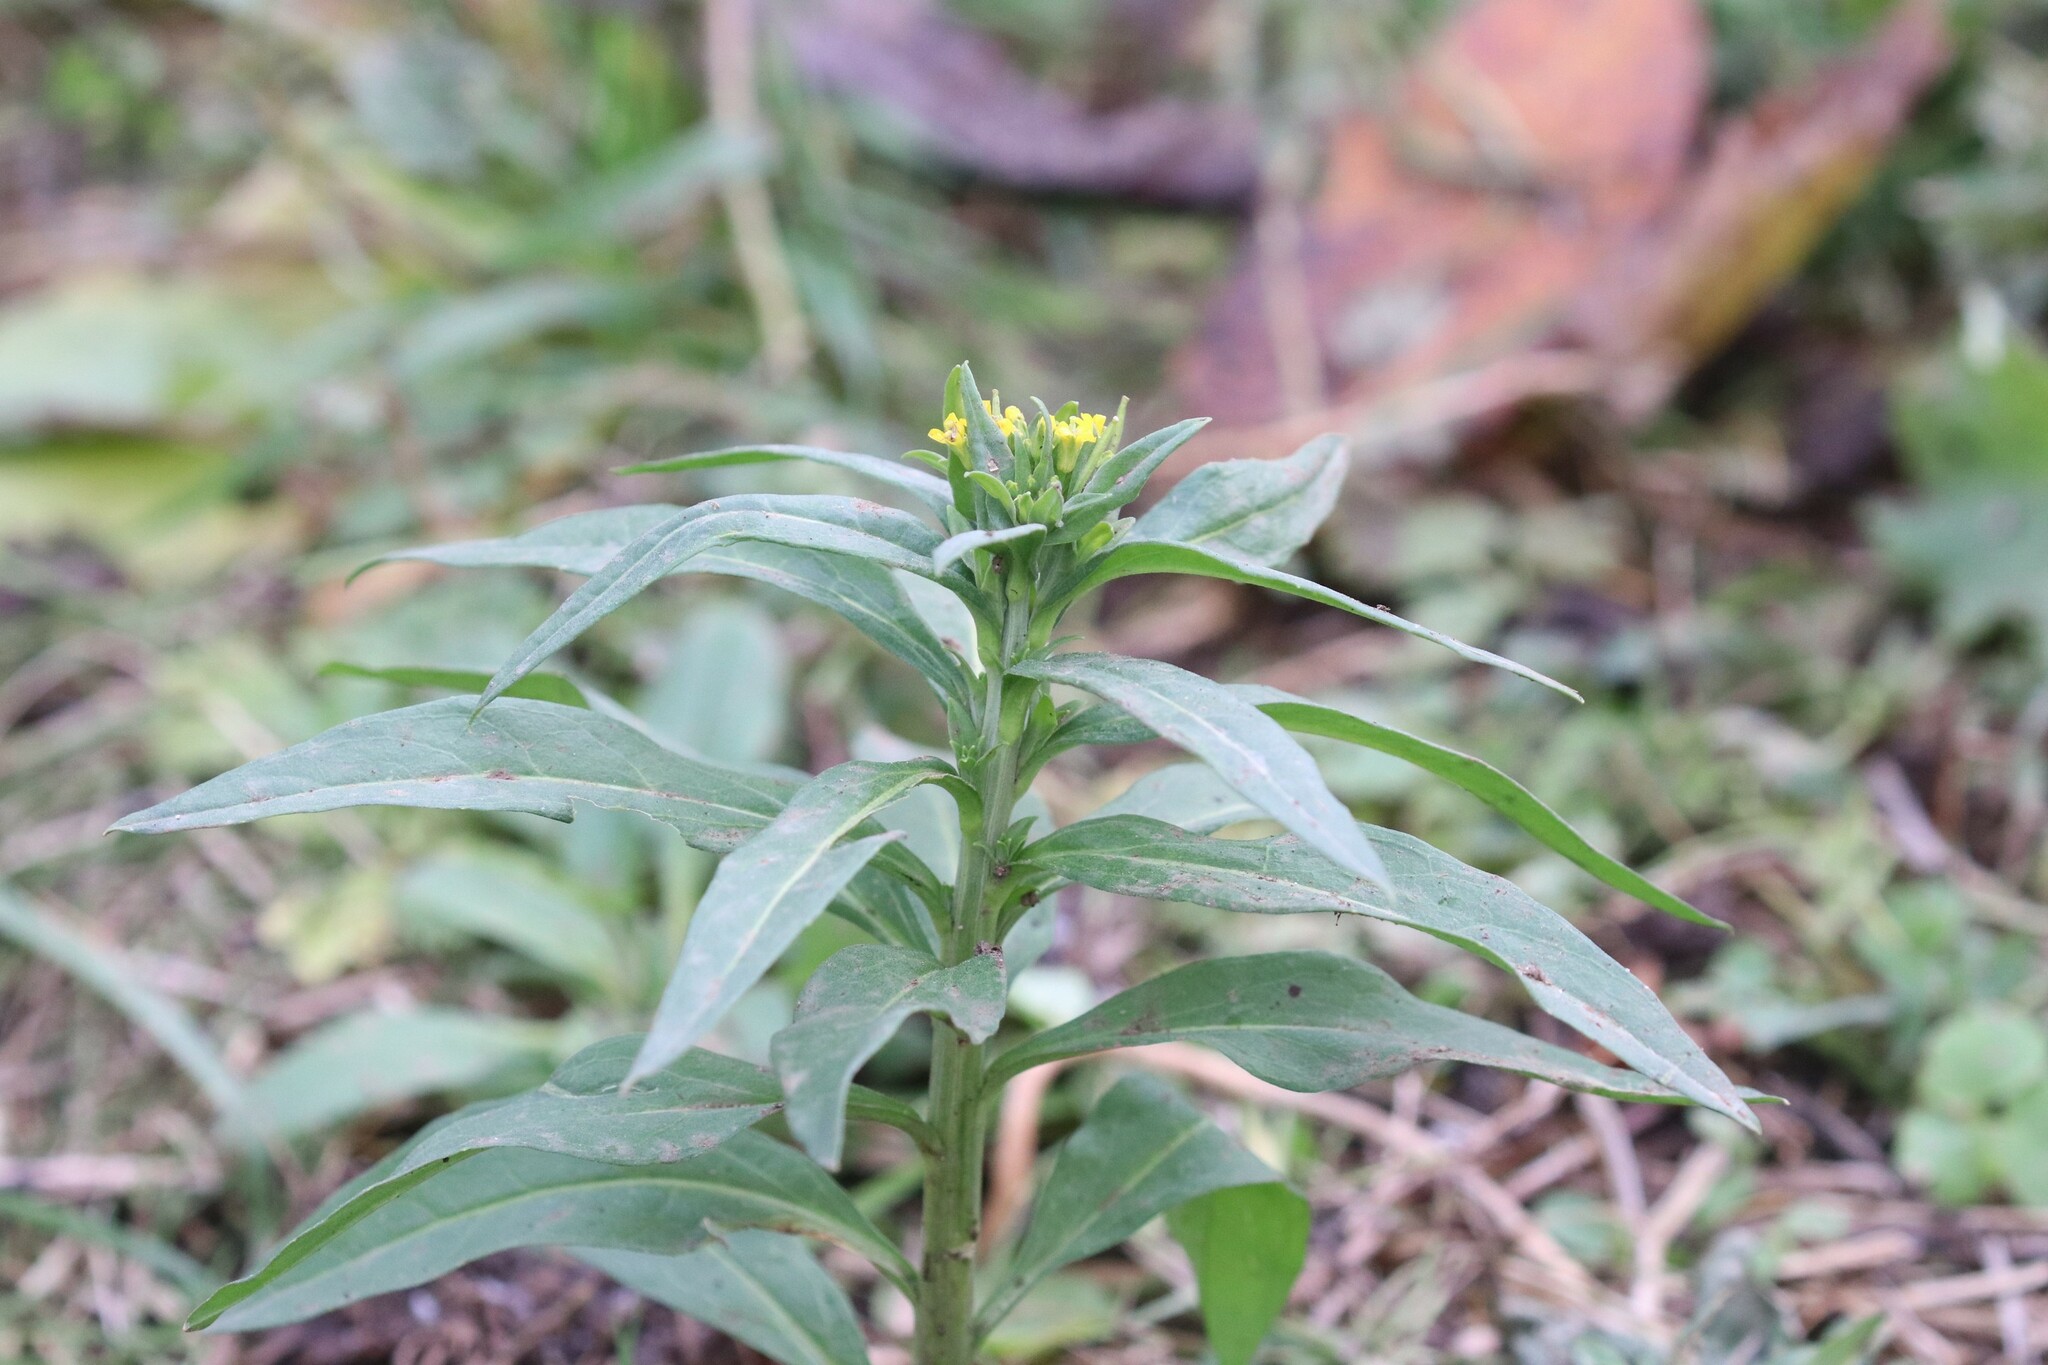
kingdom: Plantae
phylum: Tracheophyta
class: Magnoliopsida
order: Brassicales
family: Brassicaceae
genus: Erysimum
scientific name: Erysimum cheiranthoides
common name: Treacle mustard
